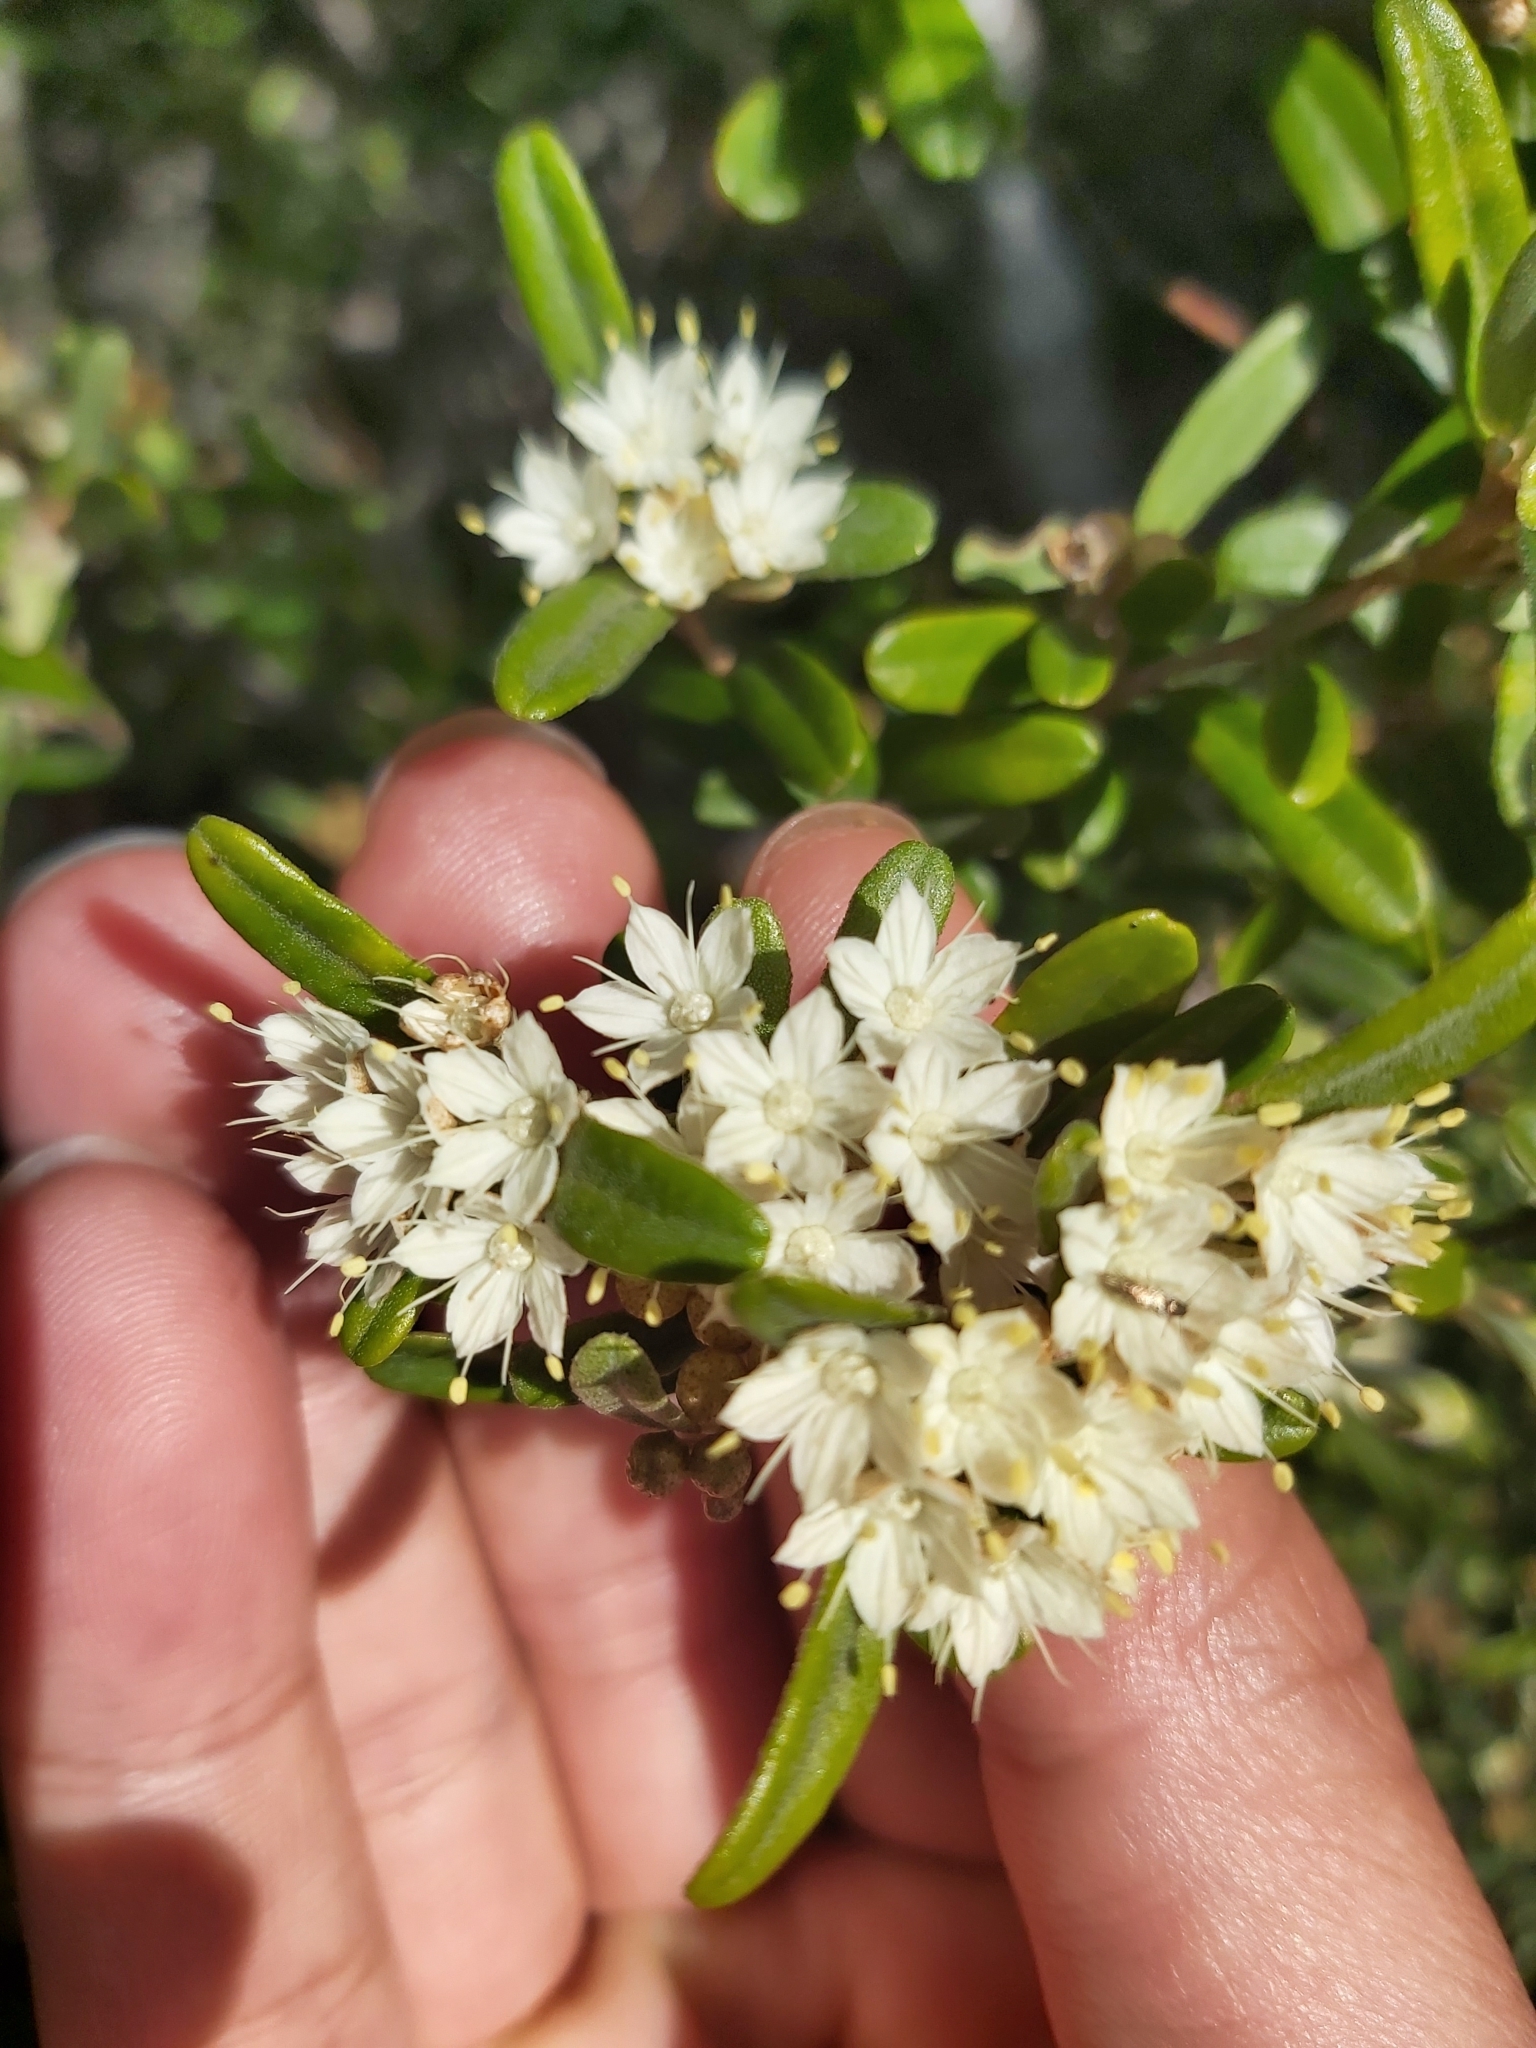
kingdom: Plantae
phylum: Tracheophyta
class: Magnoliopsida
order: Sapindales
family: Rutaceae
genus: Phebalium
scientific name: Phebalium squamulosum
